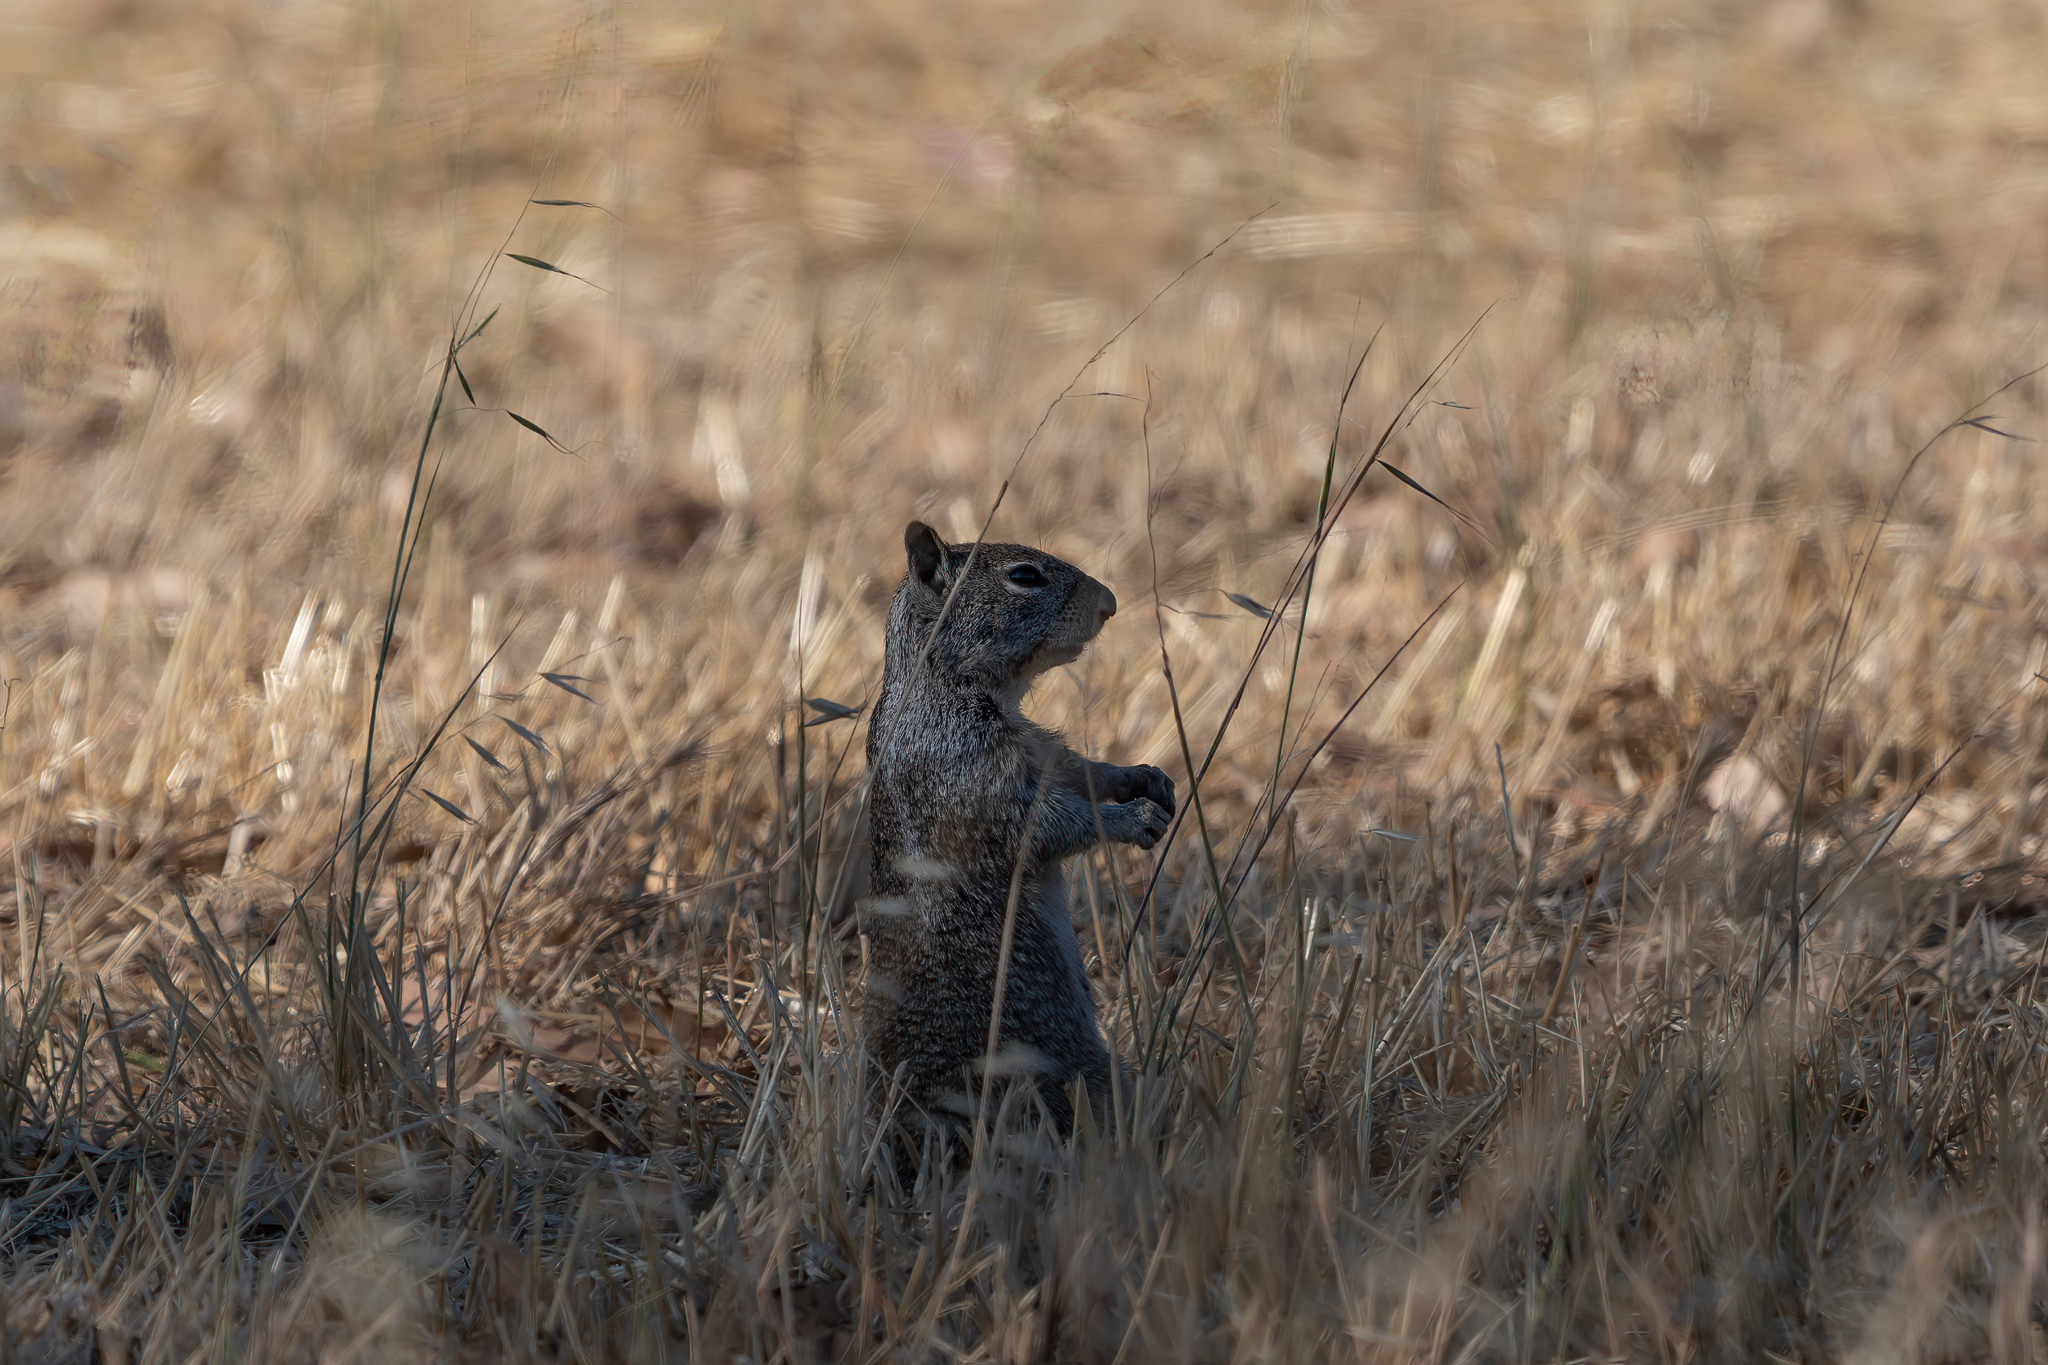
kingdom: Animalia
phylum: Chordata
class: Mammalia
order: Rodentia
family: Sciuridae
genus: Otospermophilus
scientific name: Otospermophilus beecheyi
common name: California ground squirrel
